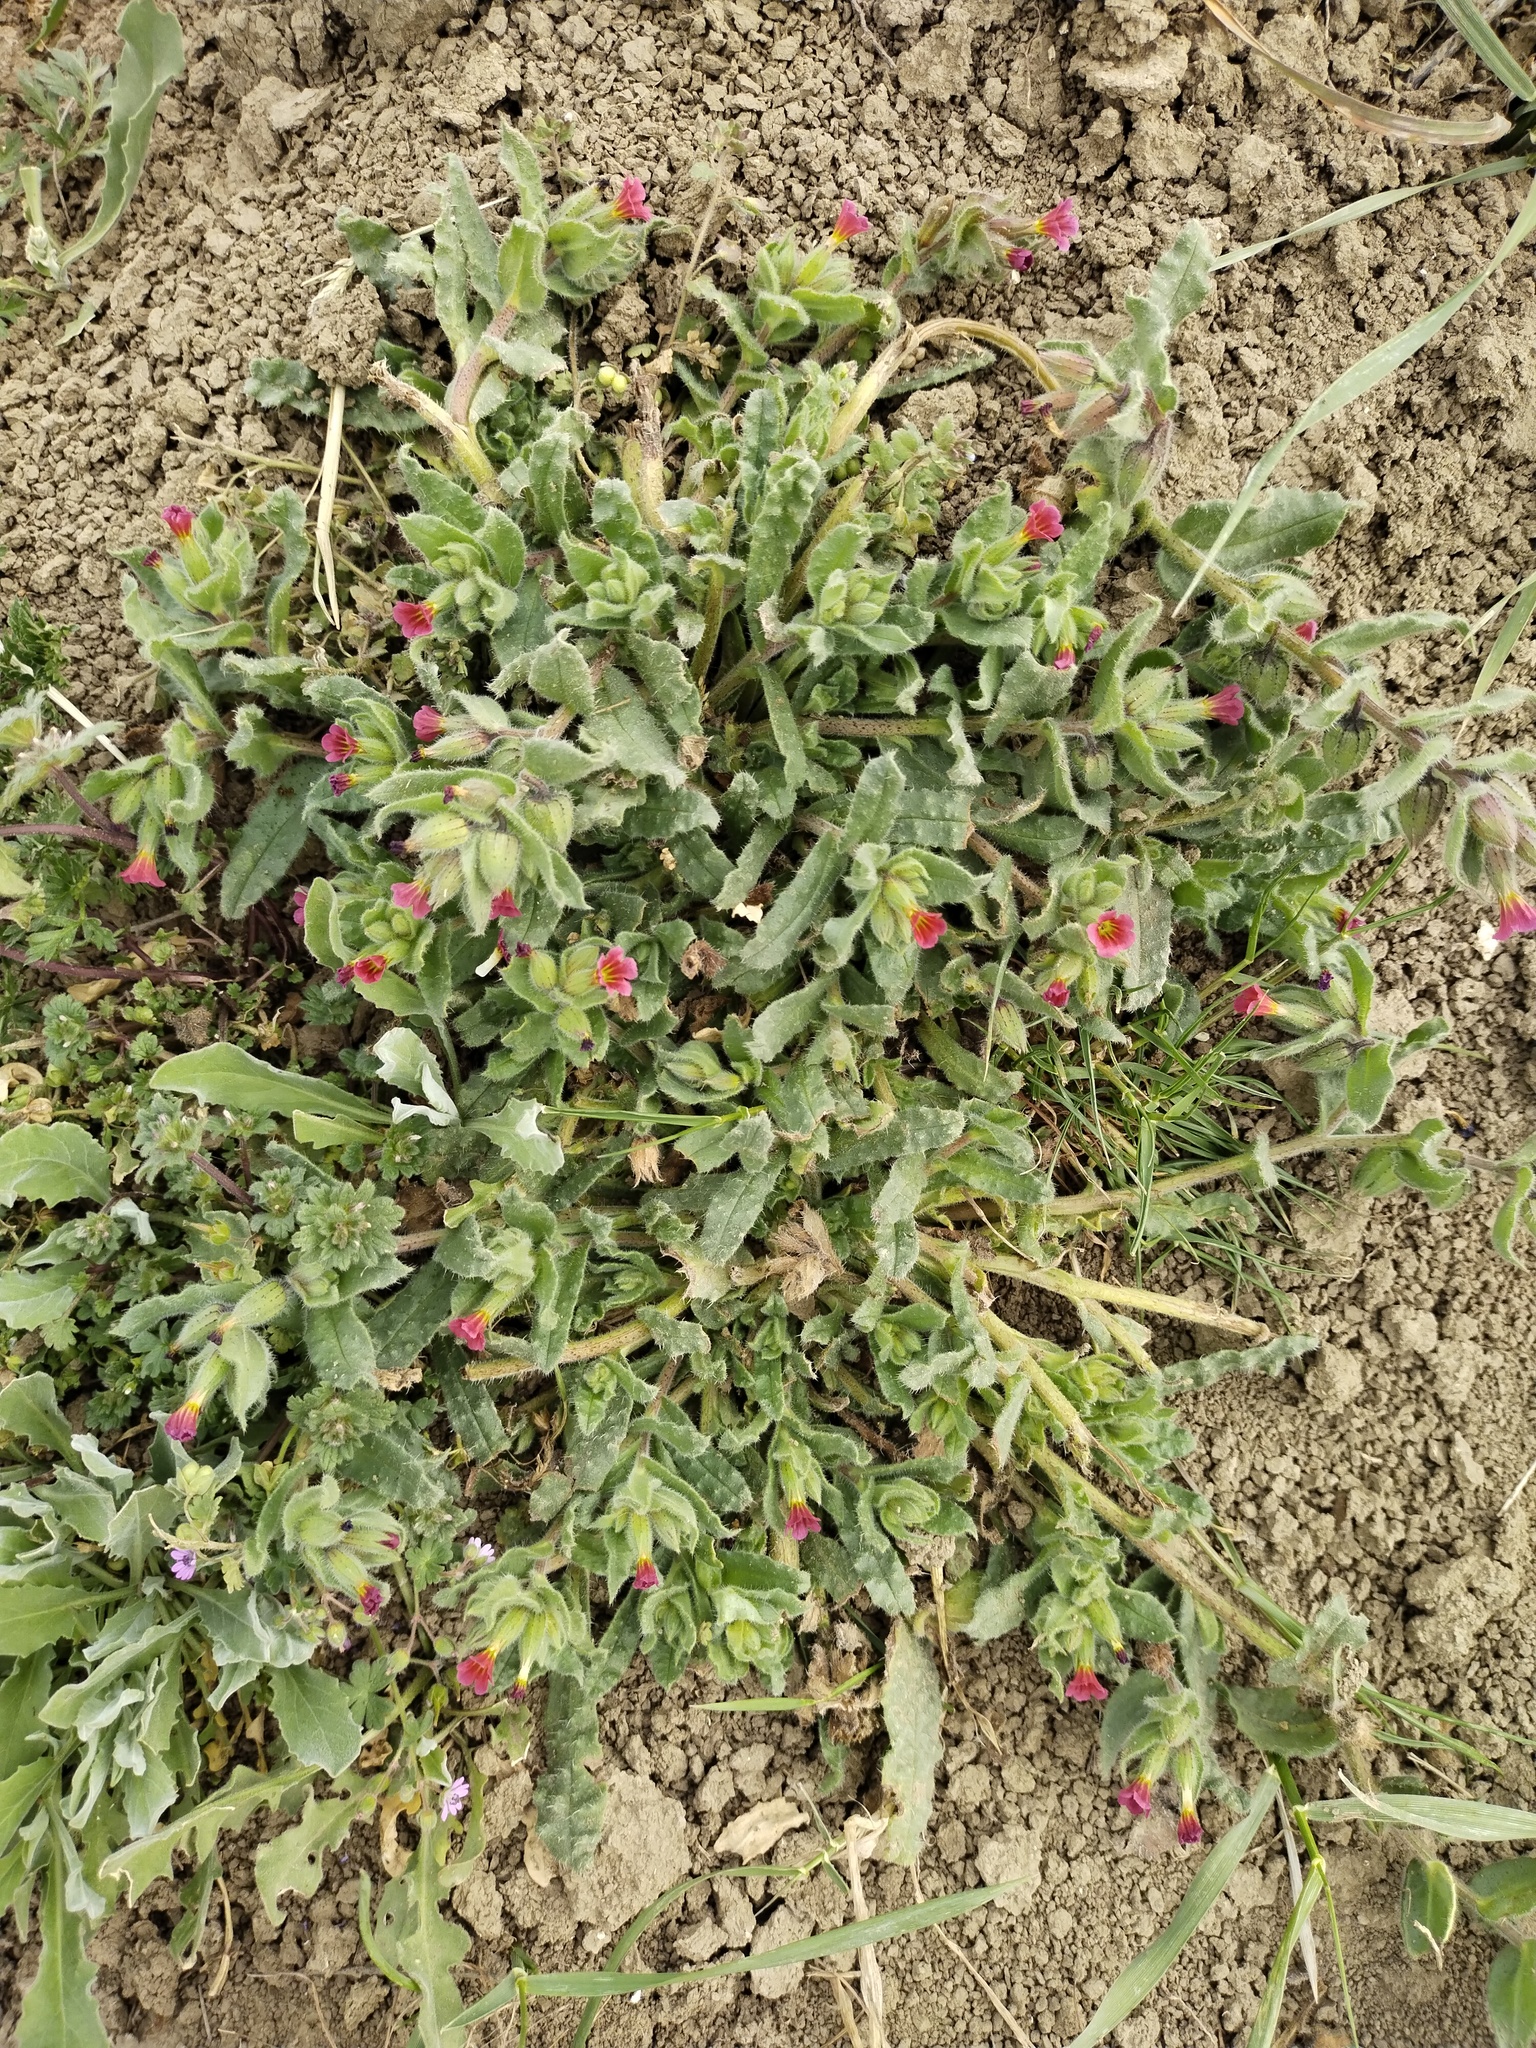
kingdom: Plantae
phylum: Tracheophyta
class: Magnoliopsida
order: Boraginales
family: Boraginaceae
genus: Nonea
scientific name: Nonea rosea
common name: Pink nonea
